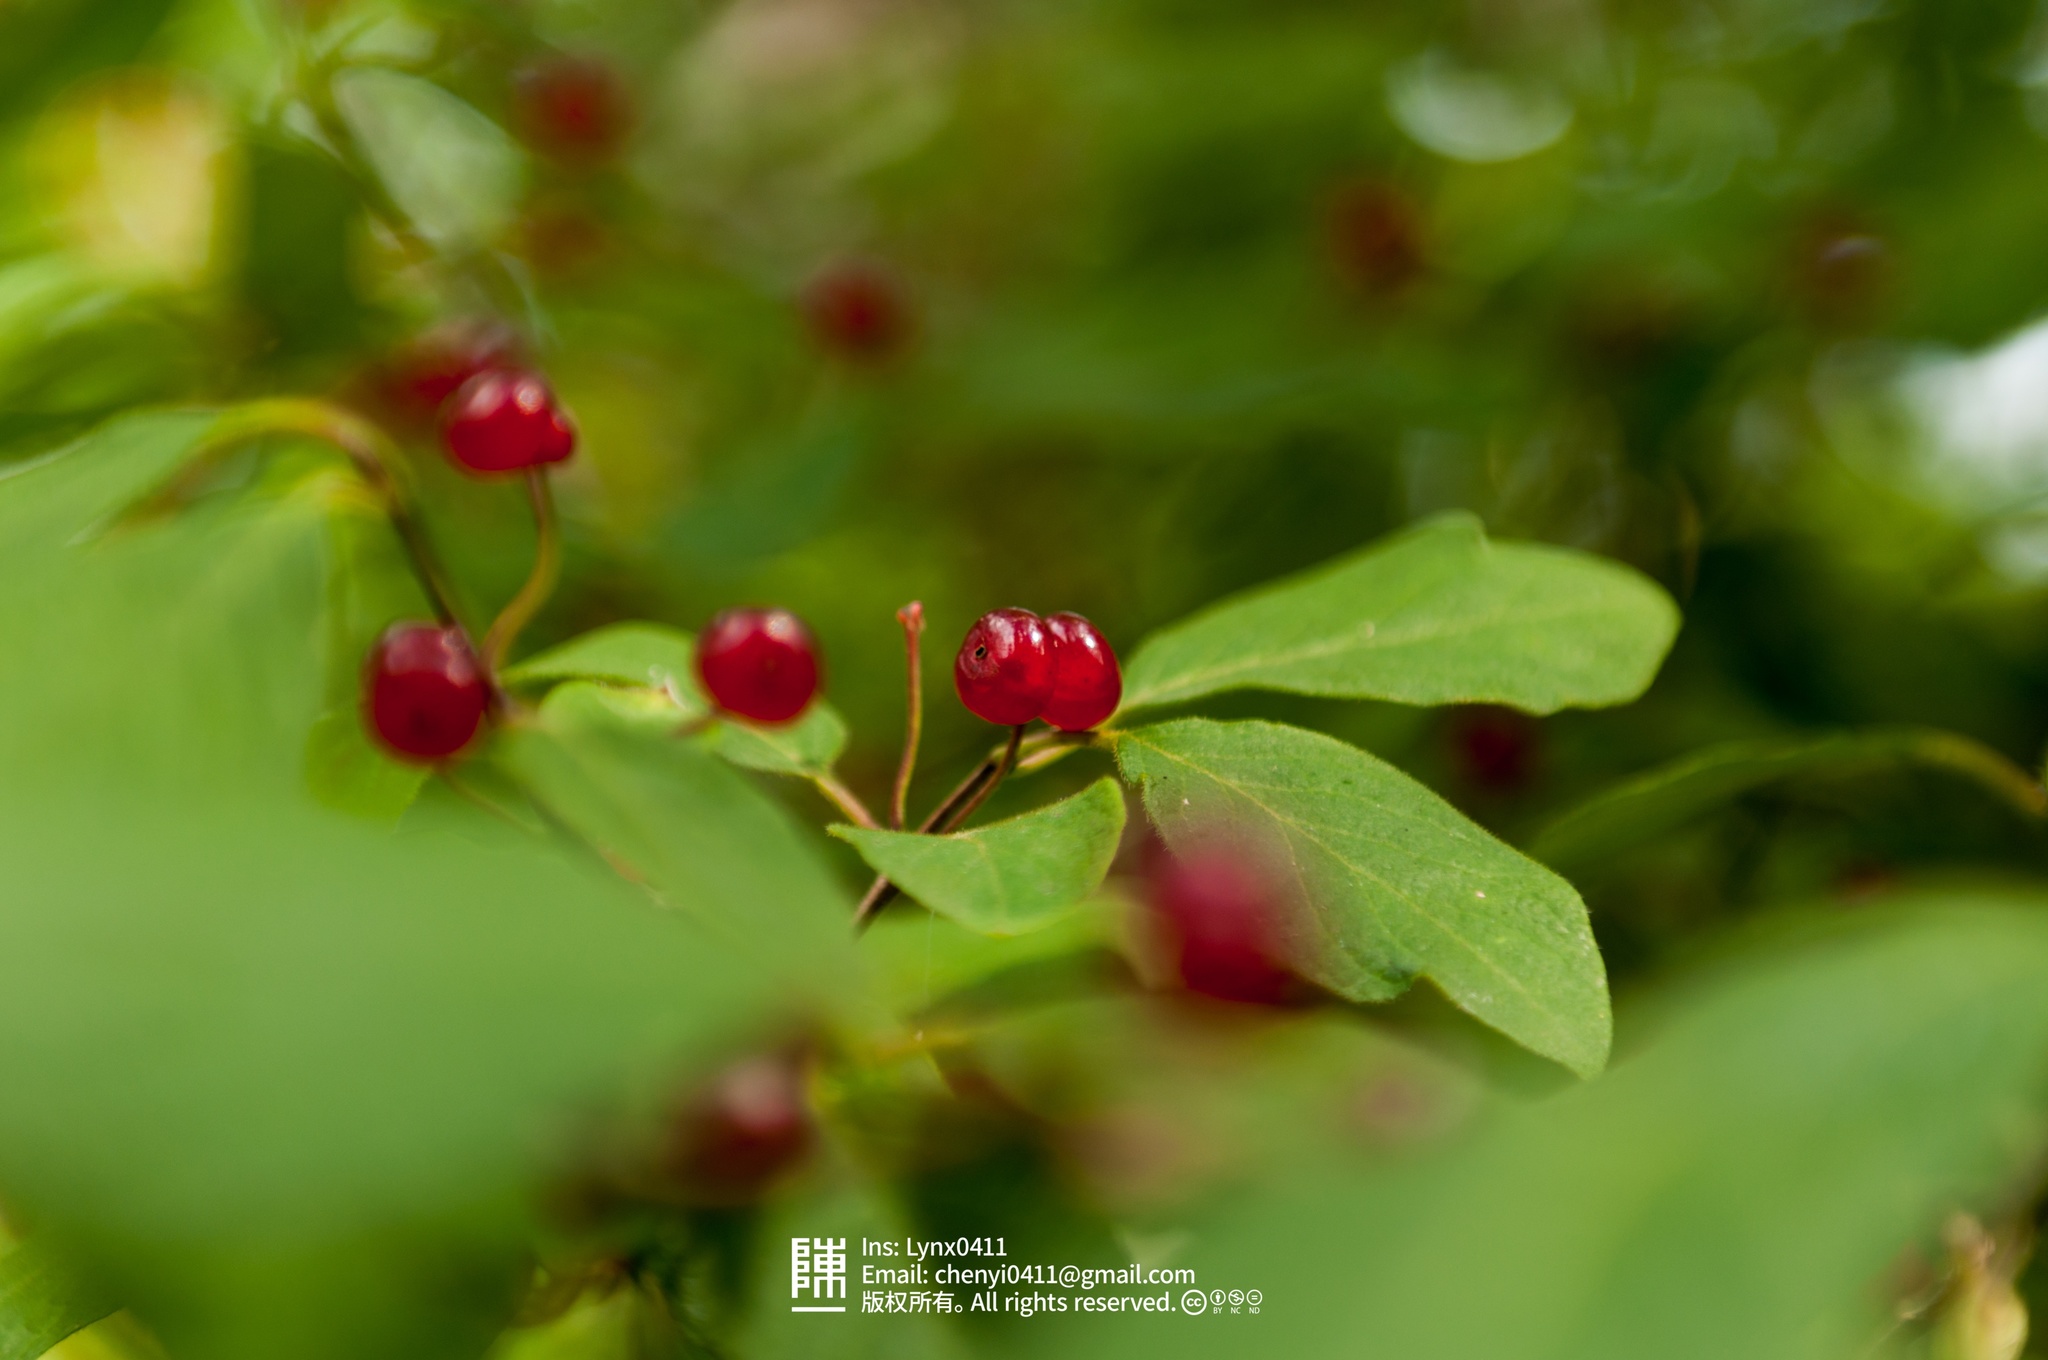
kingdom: Plantae
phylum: Tracheophyta
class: Magnoliopsida
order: Dipsacales
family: Caprifoliaceae
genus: Lonicera
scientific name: Lonicera xylosteum
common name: Fly honeysuckle
